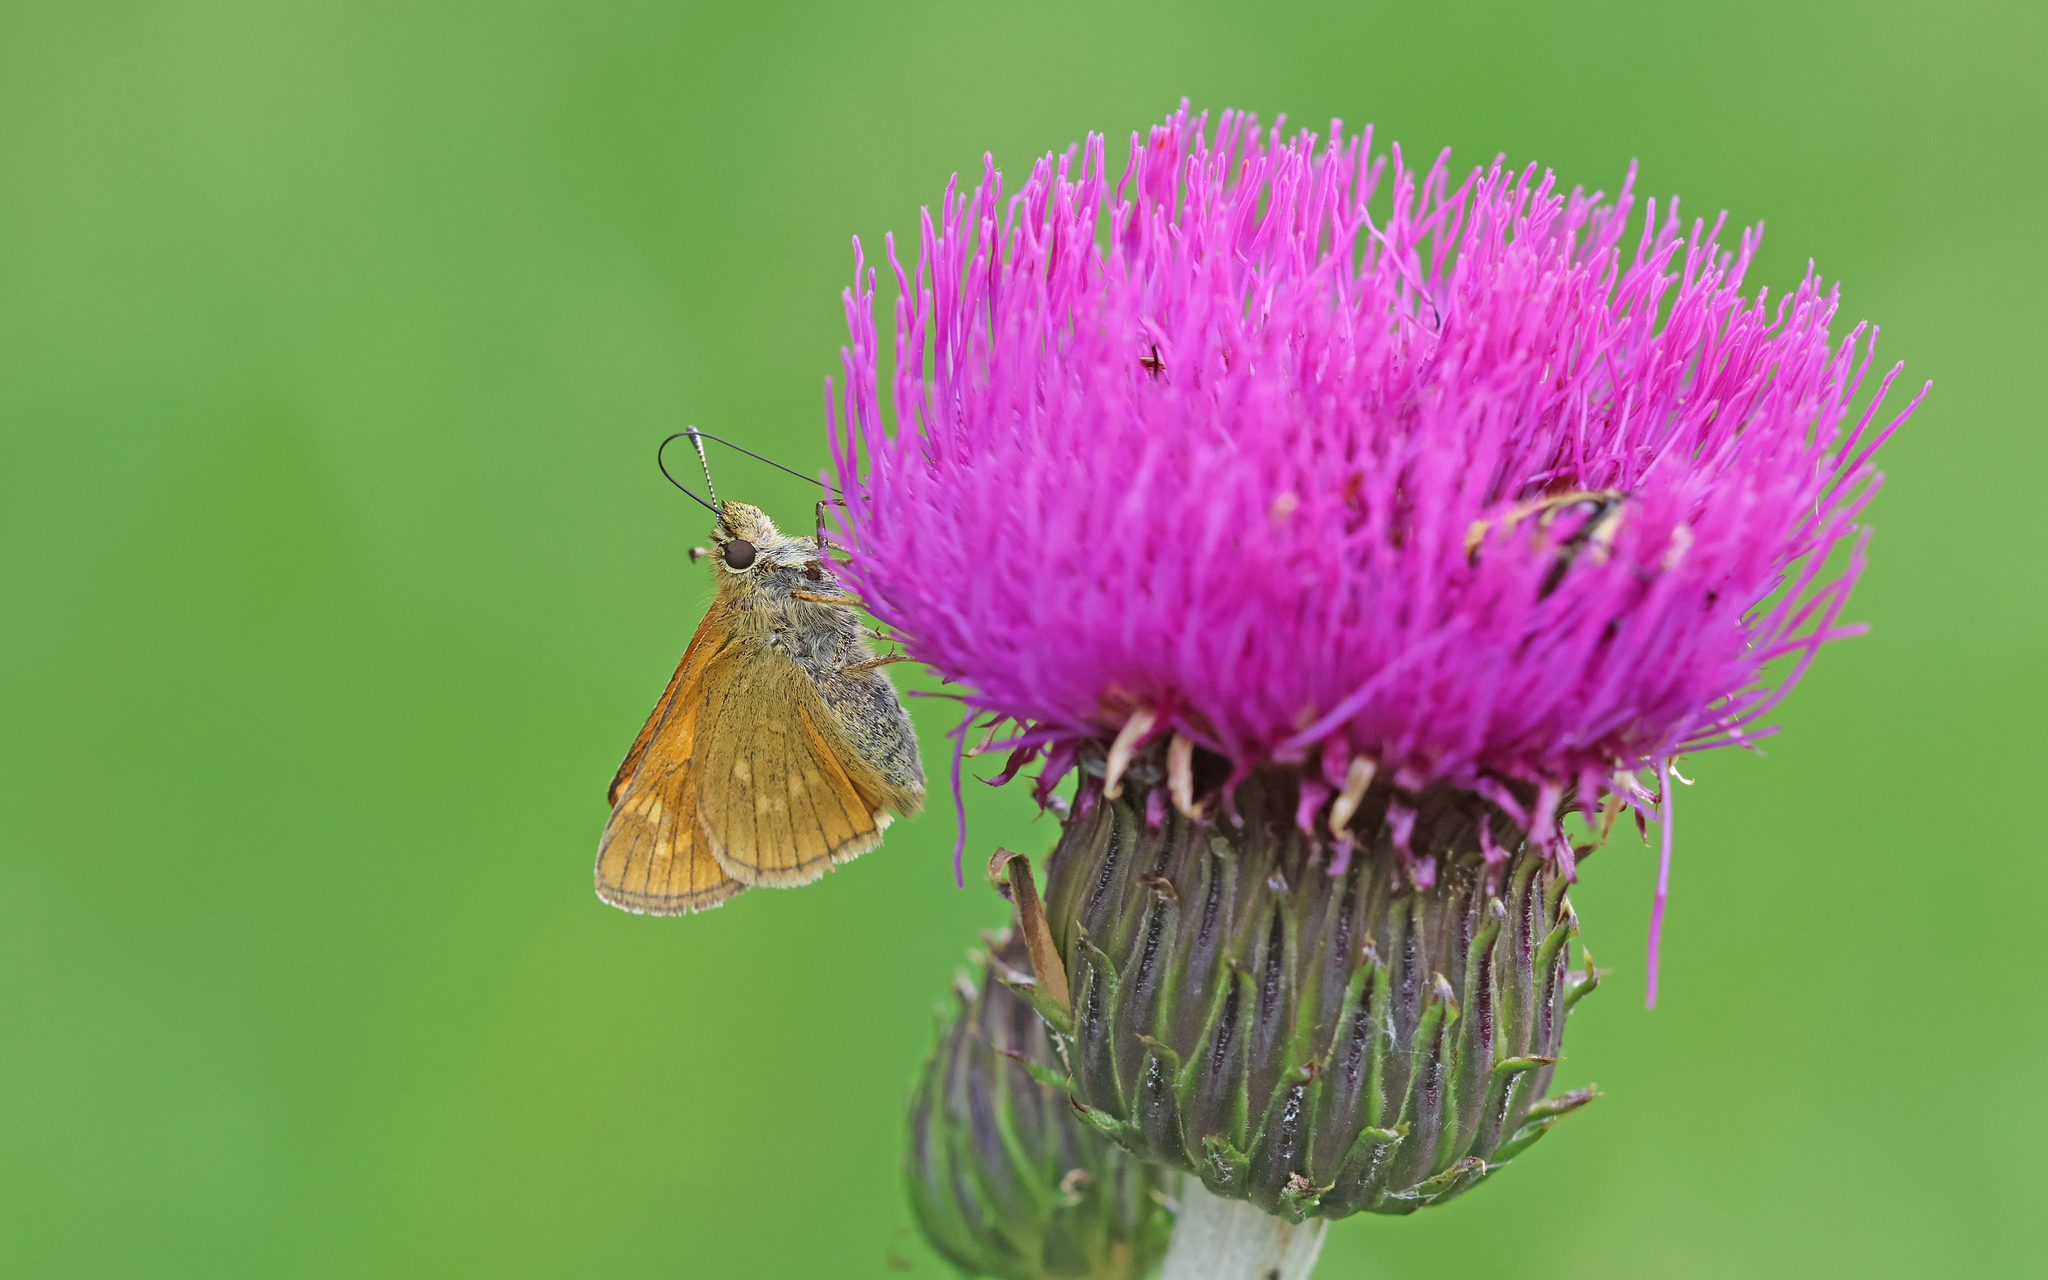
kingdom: Animalia
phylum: Arthropoda
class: Insecta
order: Lepidoptera
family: Hesperiidae
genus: Ochlodes
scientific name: Ochlodes venata
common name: Large skipper
